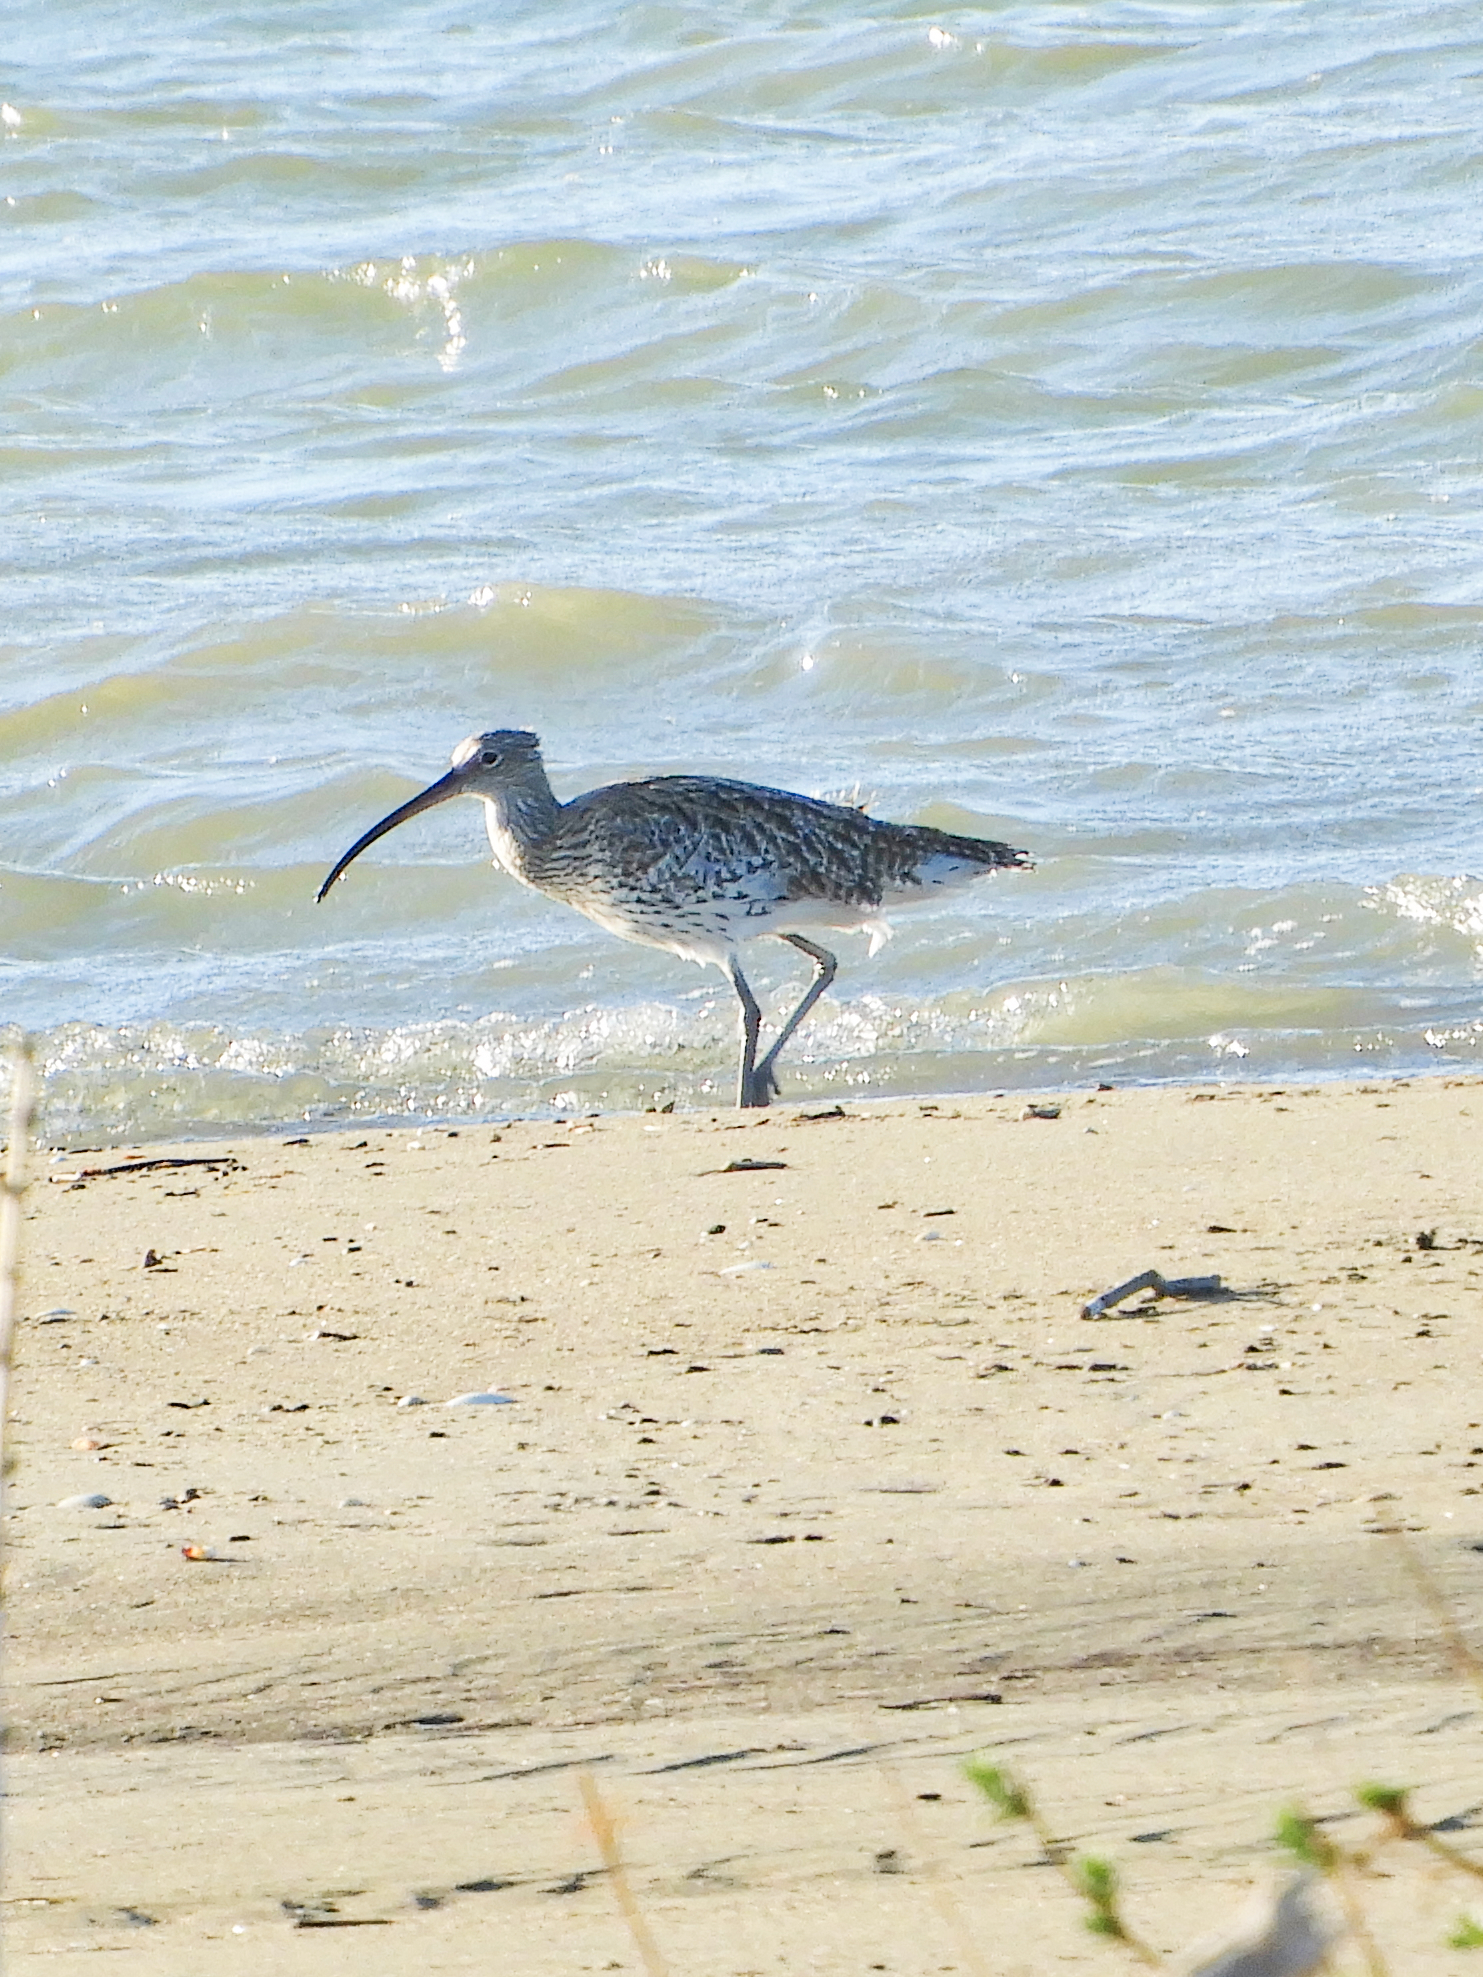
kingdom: Animalia
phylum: Chordata
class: Aves
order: Charadriiformes
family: Scolopacidae
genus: Numenius
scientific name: Numenius arquata
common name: Eurasian curlew
